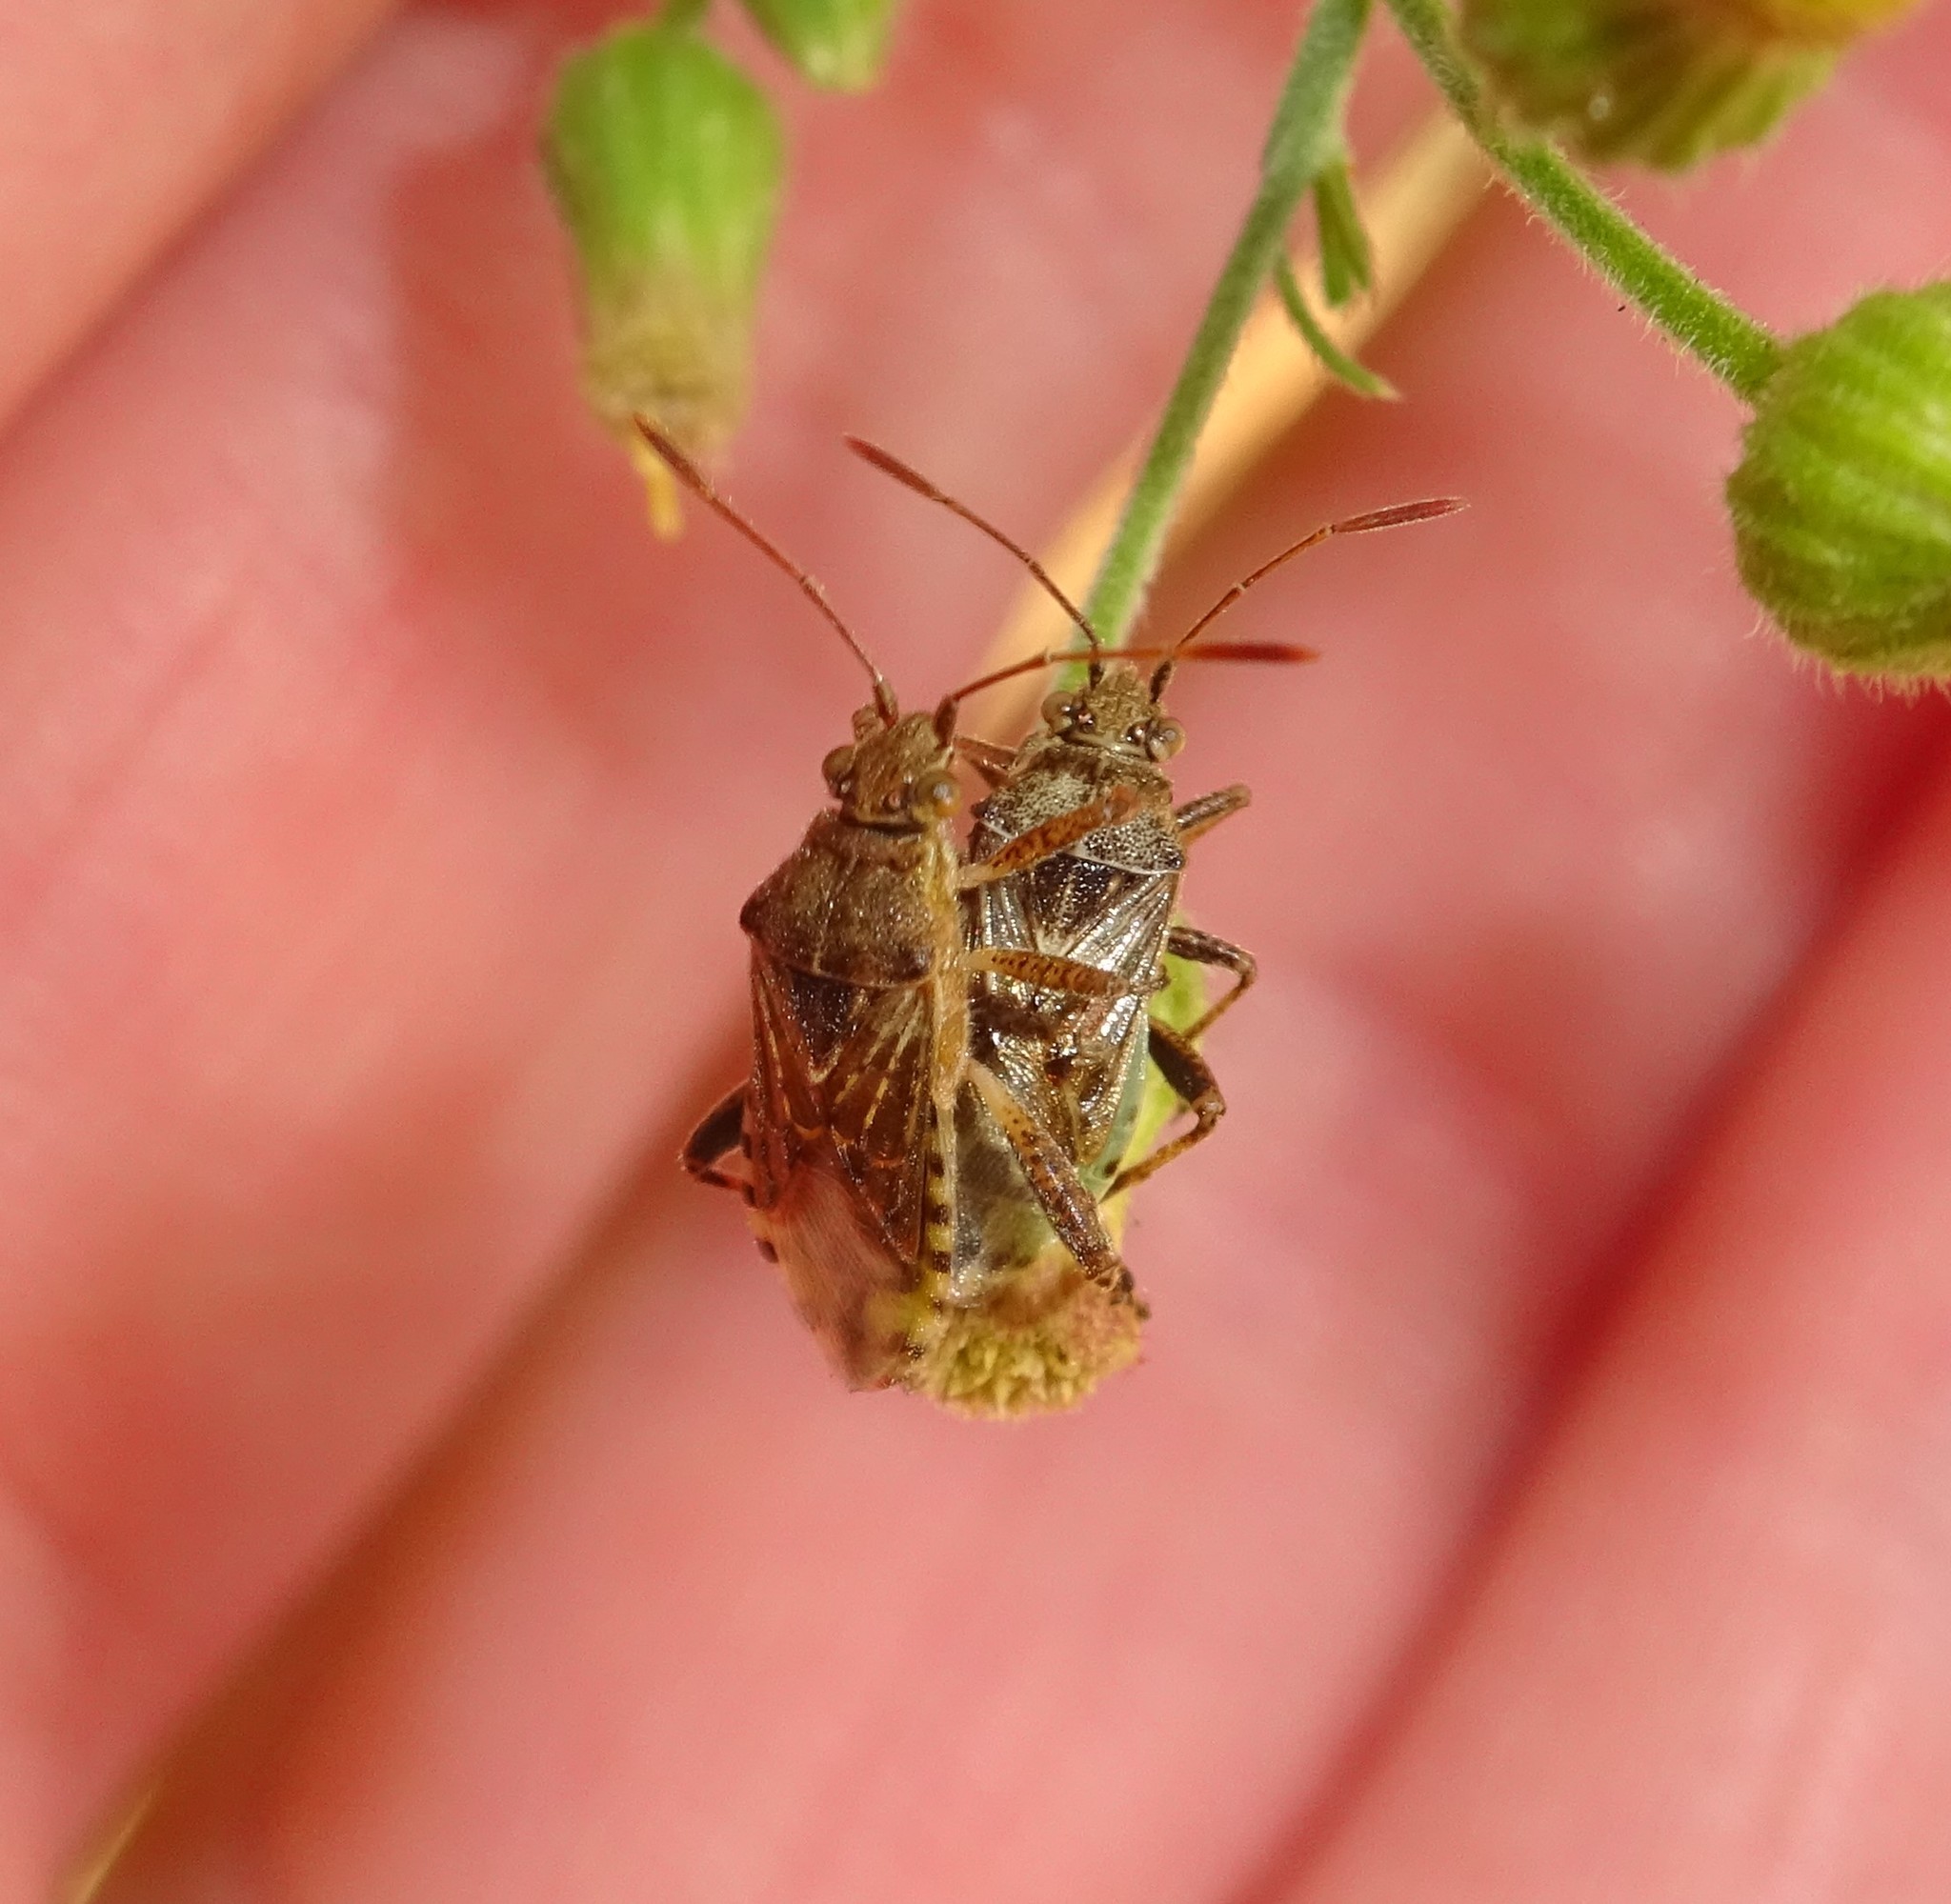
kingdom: Animalia
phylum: Arthropoda
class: Insecta
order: Hemiptera
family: Rhopalidae
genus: Stictopleurus
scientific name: Stictopleurus punctatonervosus
